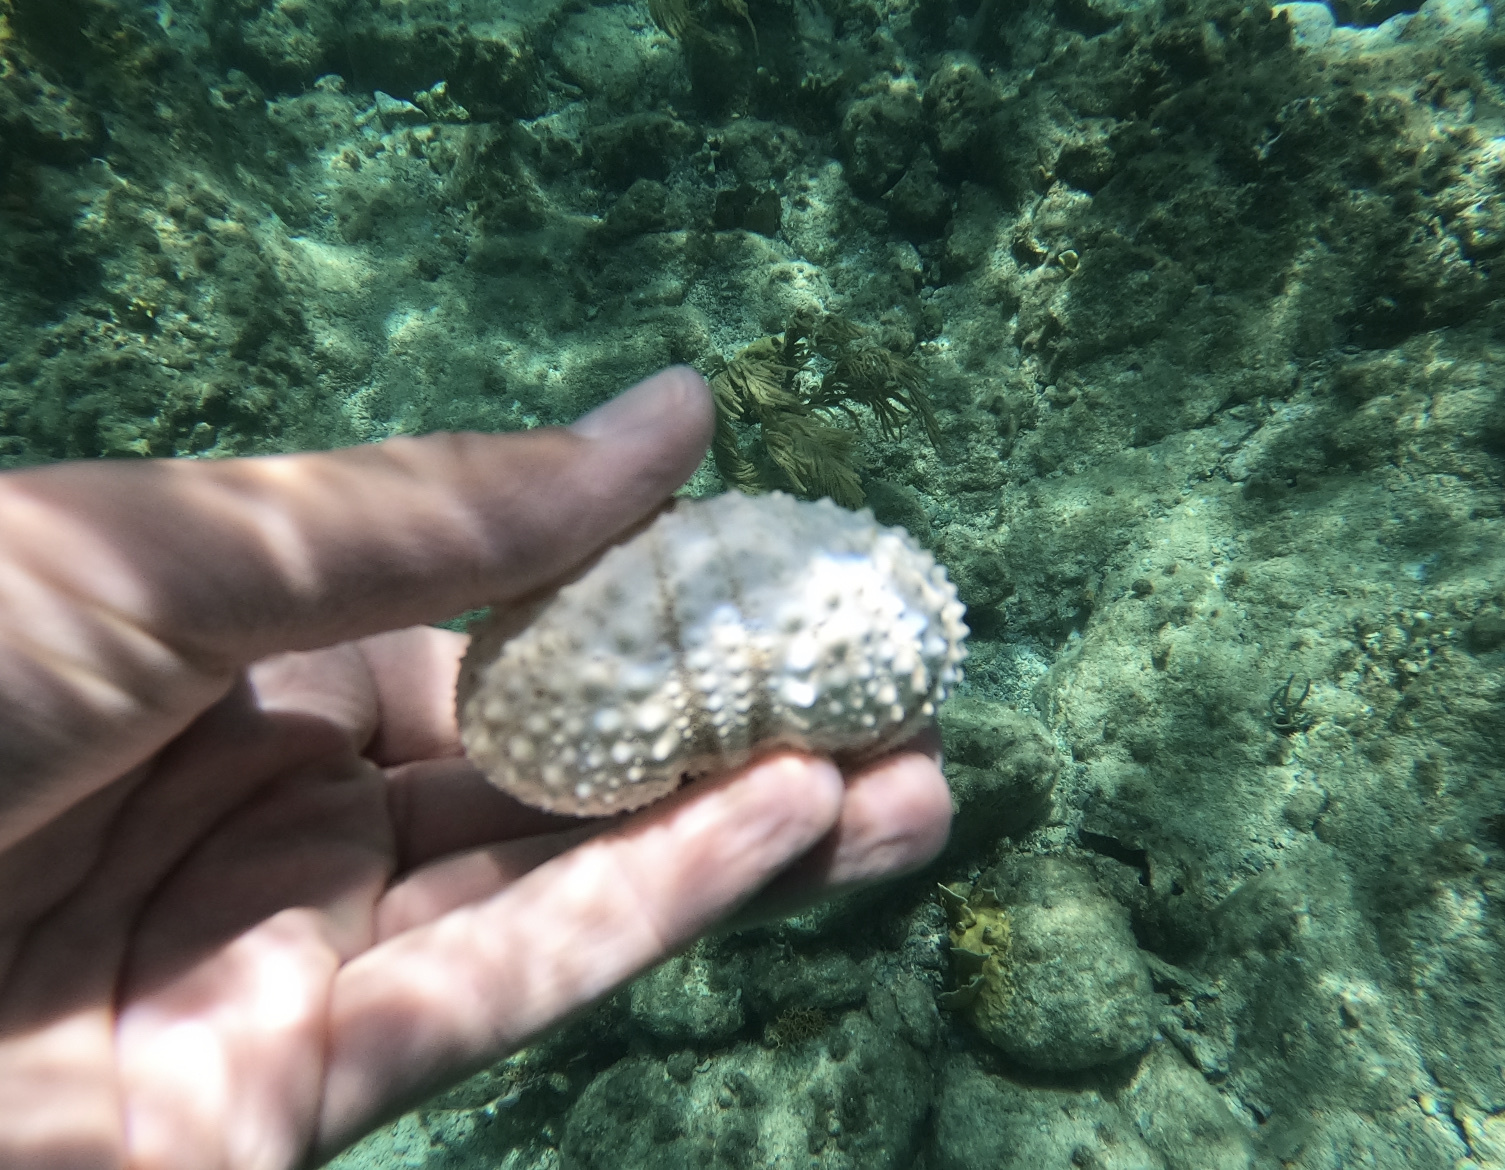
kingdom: Animalia
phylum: Echinodermata
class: Echinoidea
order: Camarodonta
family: Echinometridae
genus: Echinometra
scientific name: Echinometra lucunter
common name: Rock urchin
